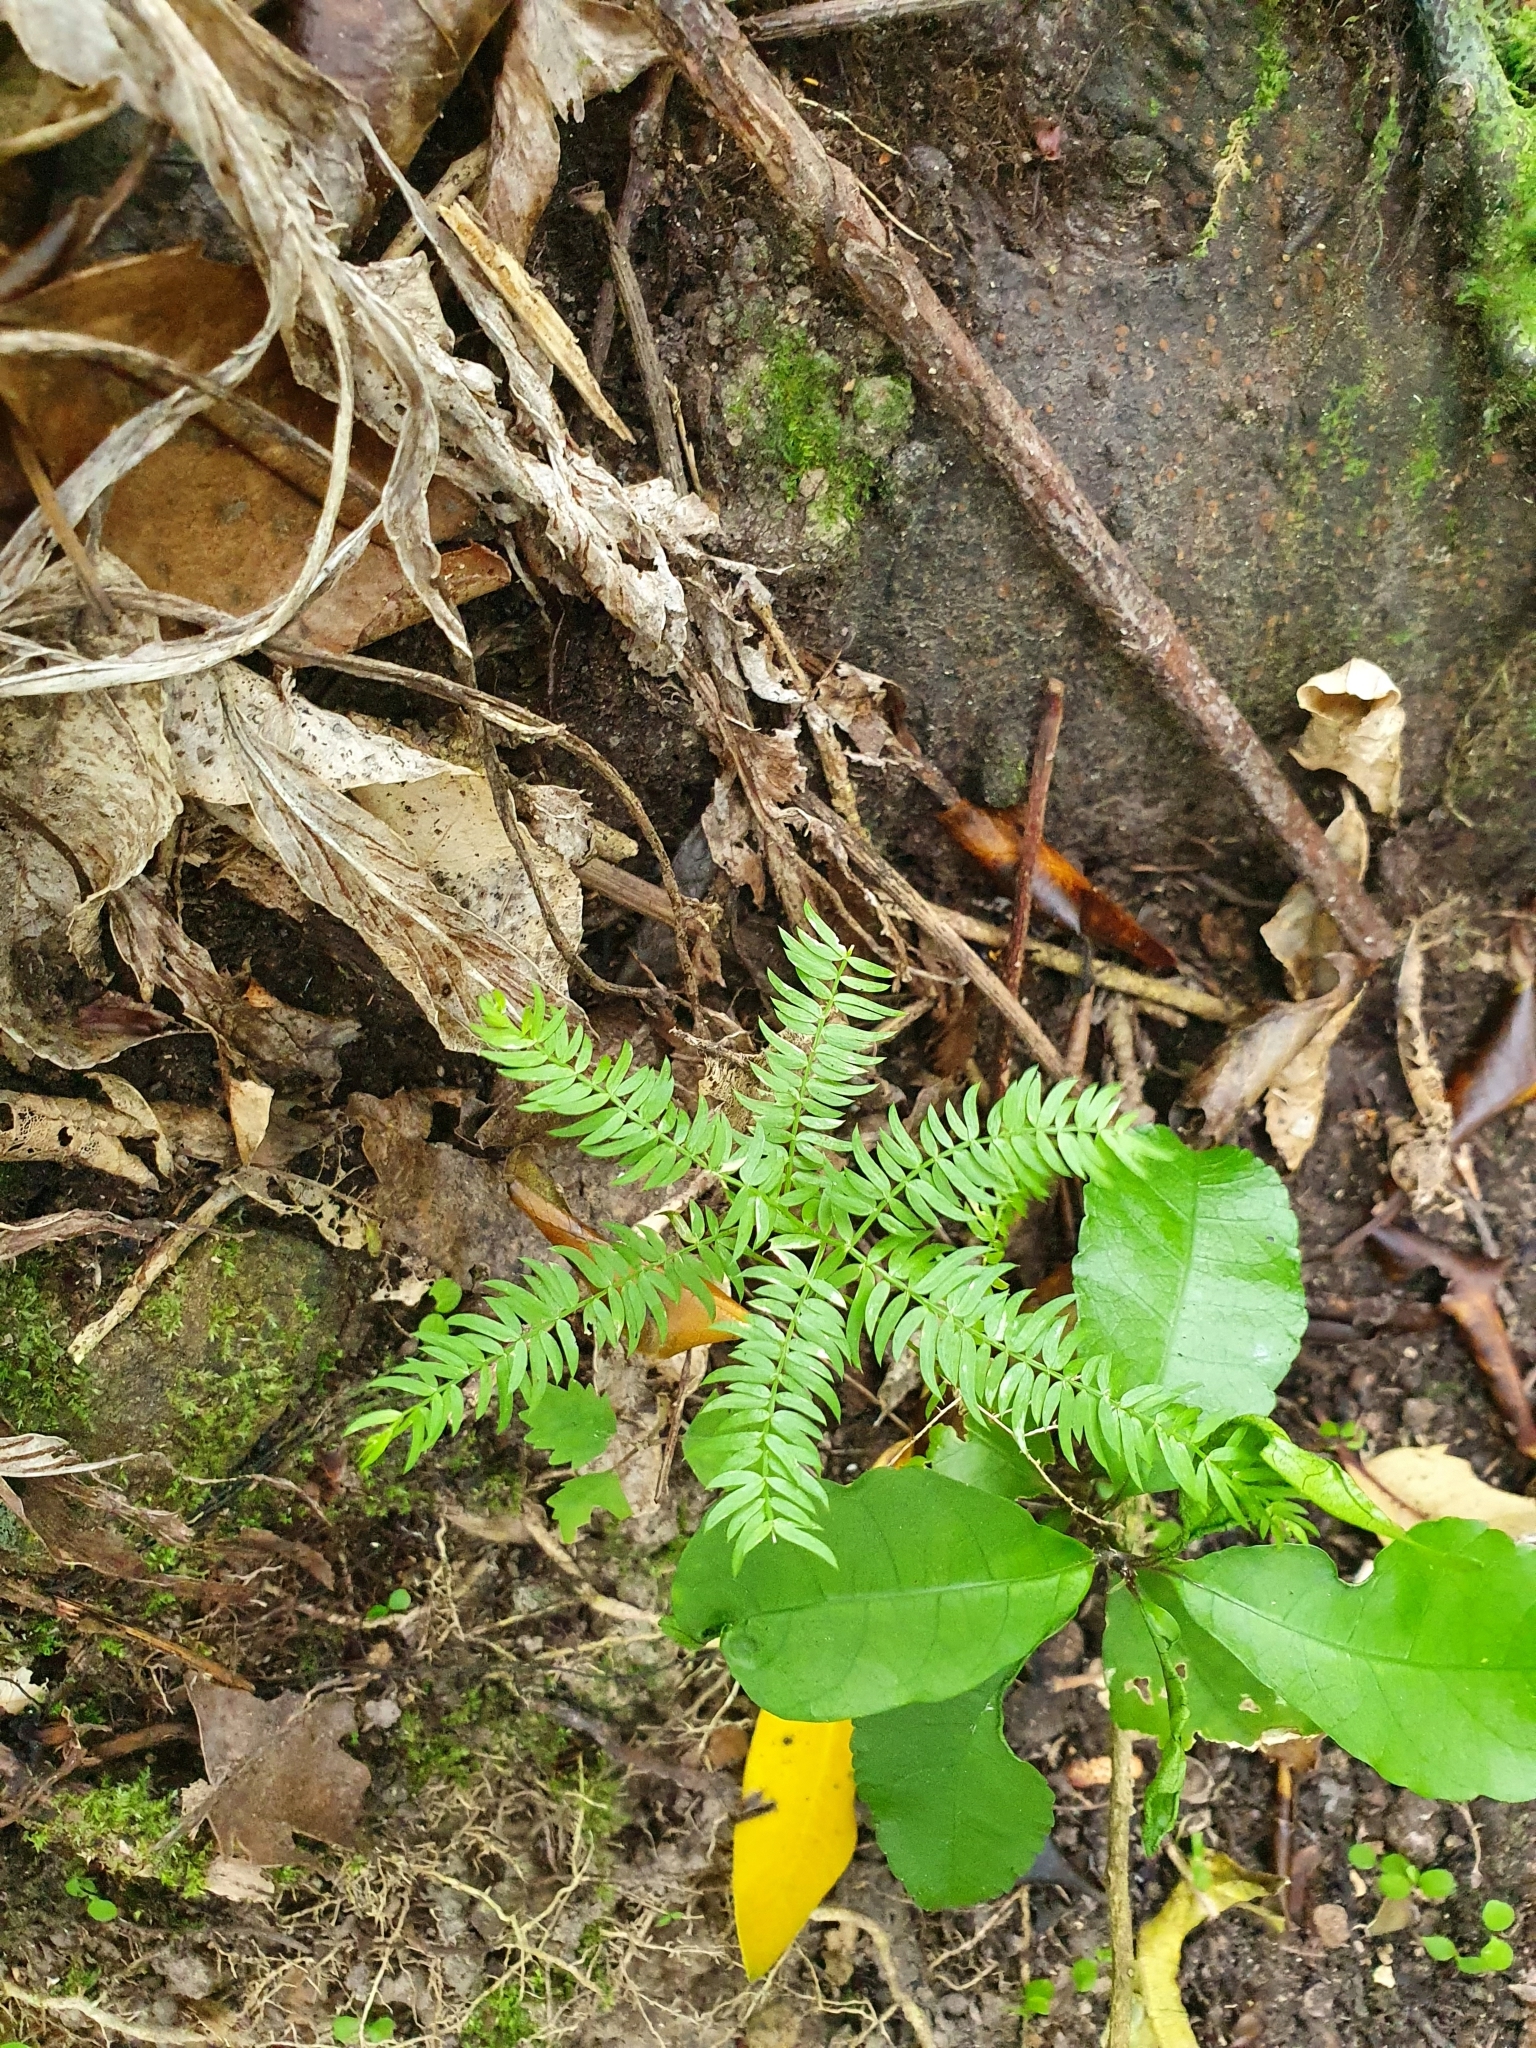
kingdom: Plantae
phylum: Tracheophyta
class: Liliopsida
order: Asparagales
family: Asparagaceae
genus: Asparagus
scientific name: Asparagus scandens
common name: Asparagus-fern
